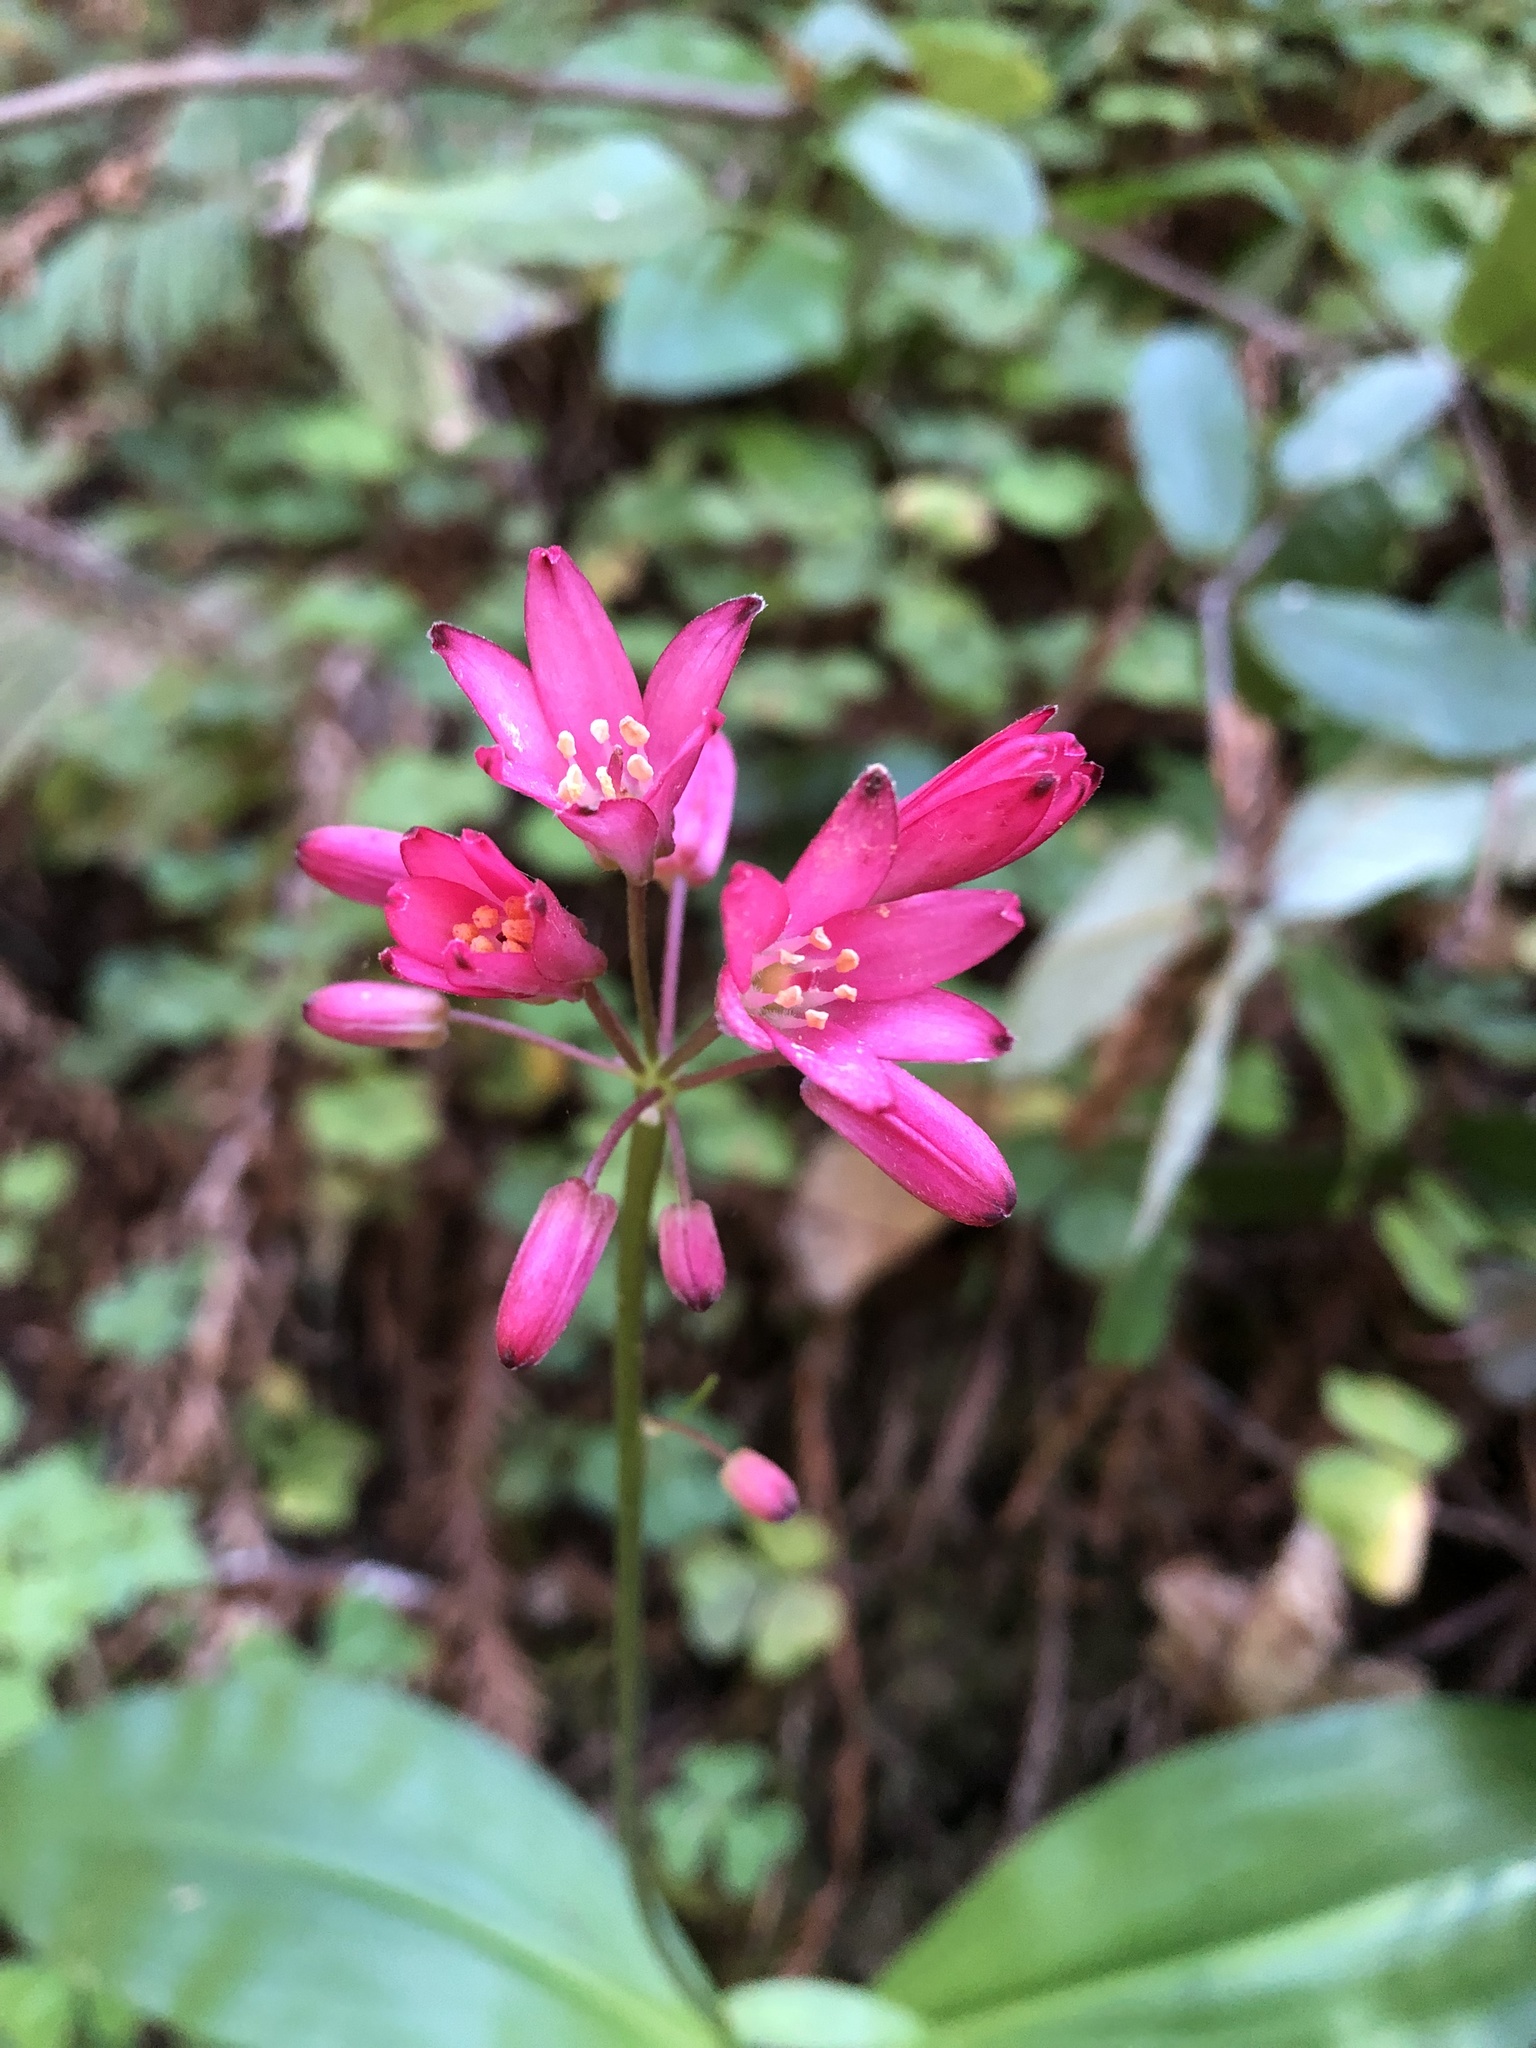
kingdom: Plantae
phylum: Tracheophyta
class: Liliopsida
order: Liliales
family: Liliaceae
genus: Clintonia
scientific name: Clintonia andrewsiana
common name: Red clintonia
